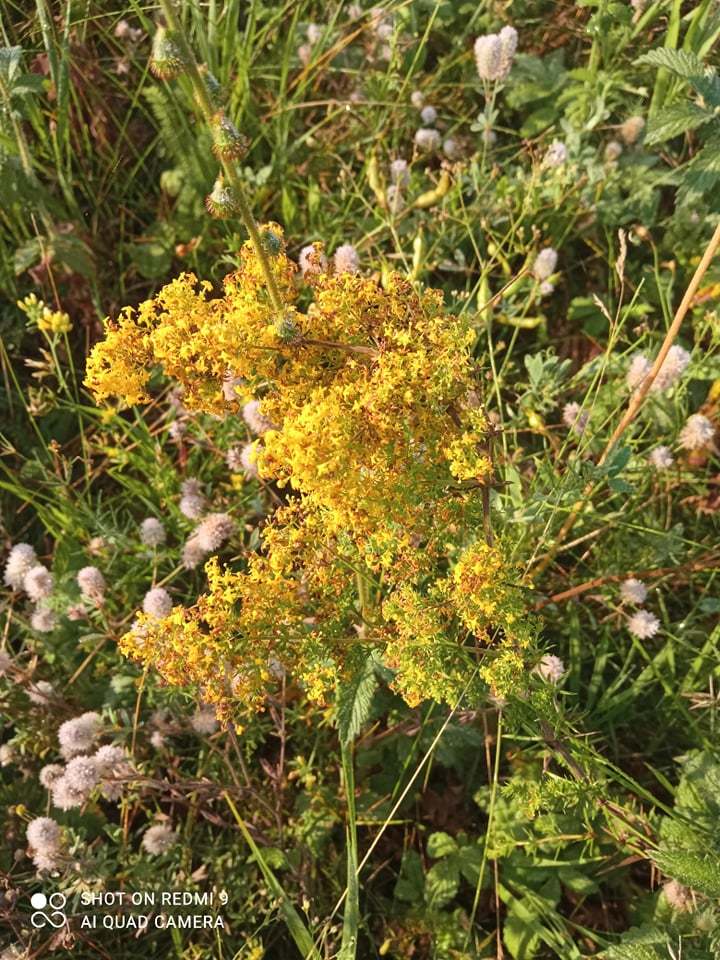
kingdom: Plantae
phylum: Tracheophyta
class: Magnoliopsida
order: Gentianales
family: Rubiaceae
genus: Galium
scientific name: Galium verum
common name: Lady's bedstraw
